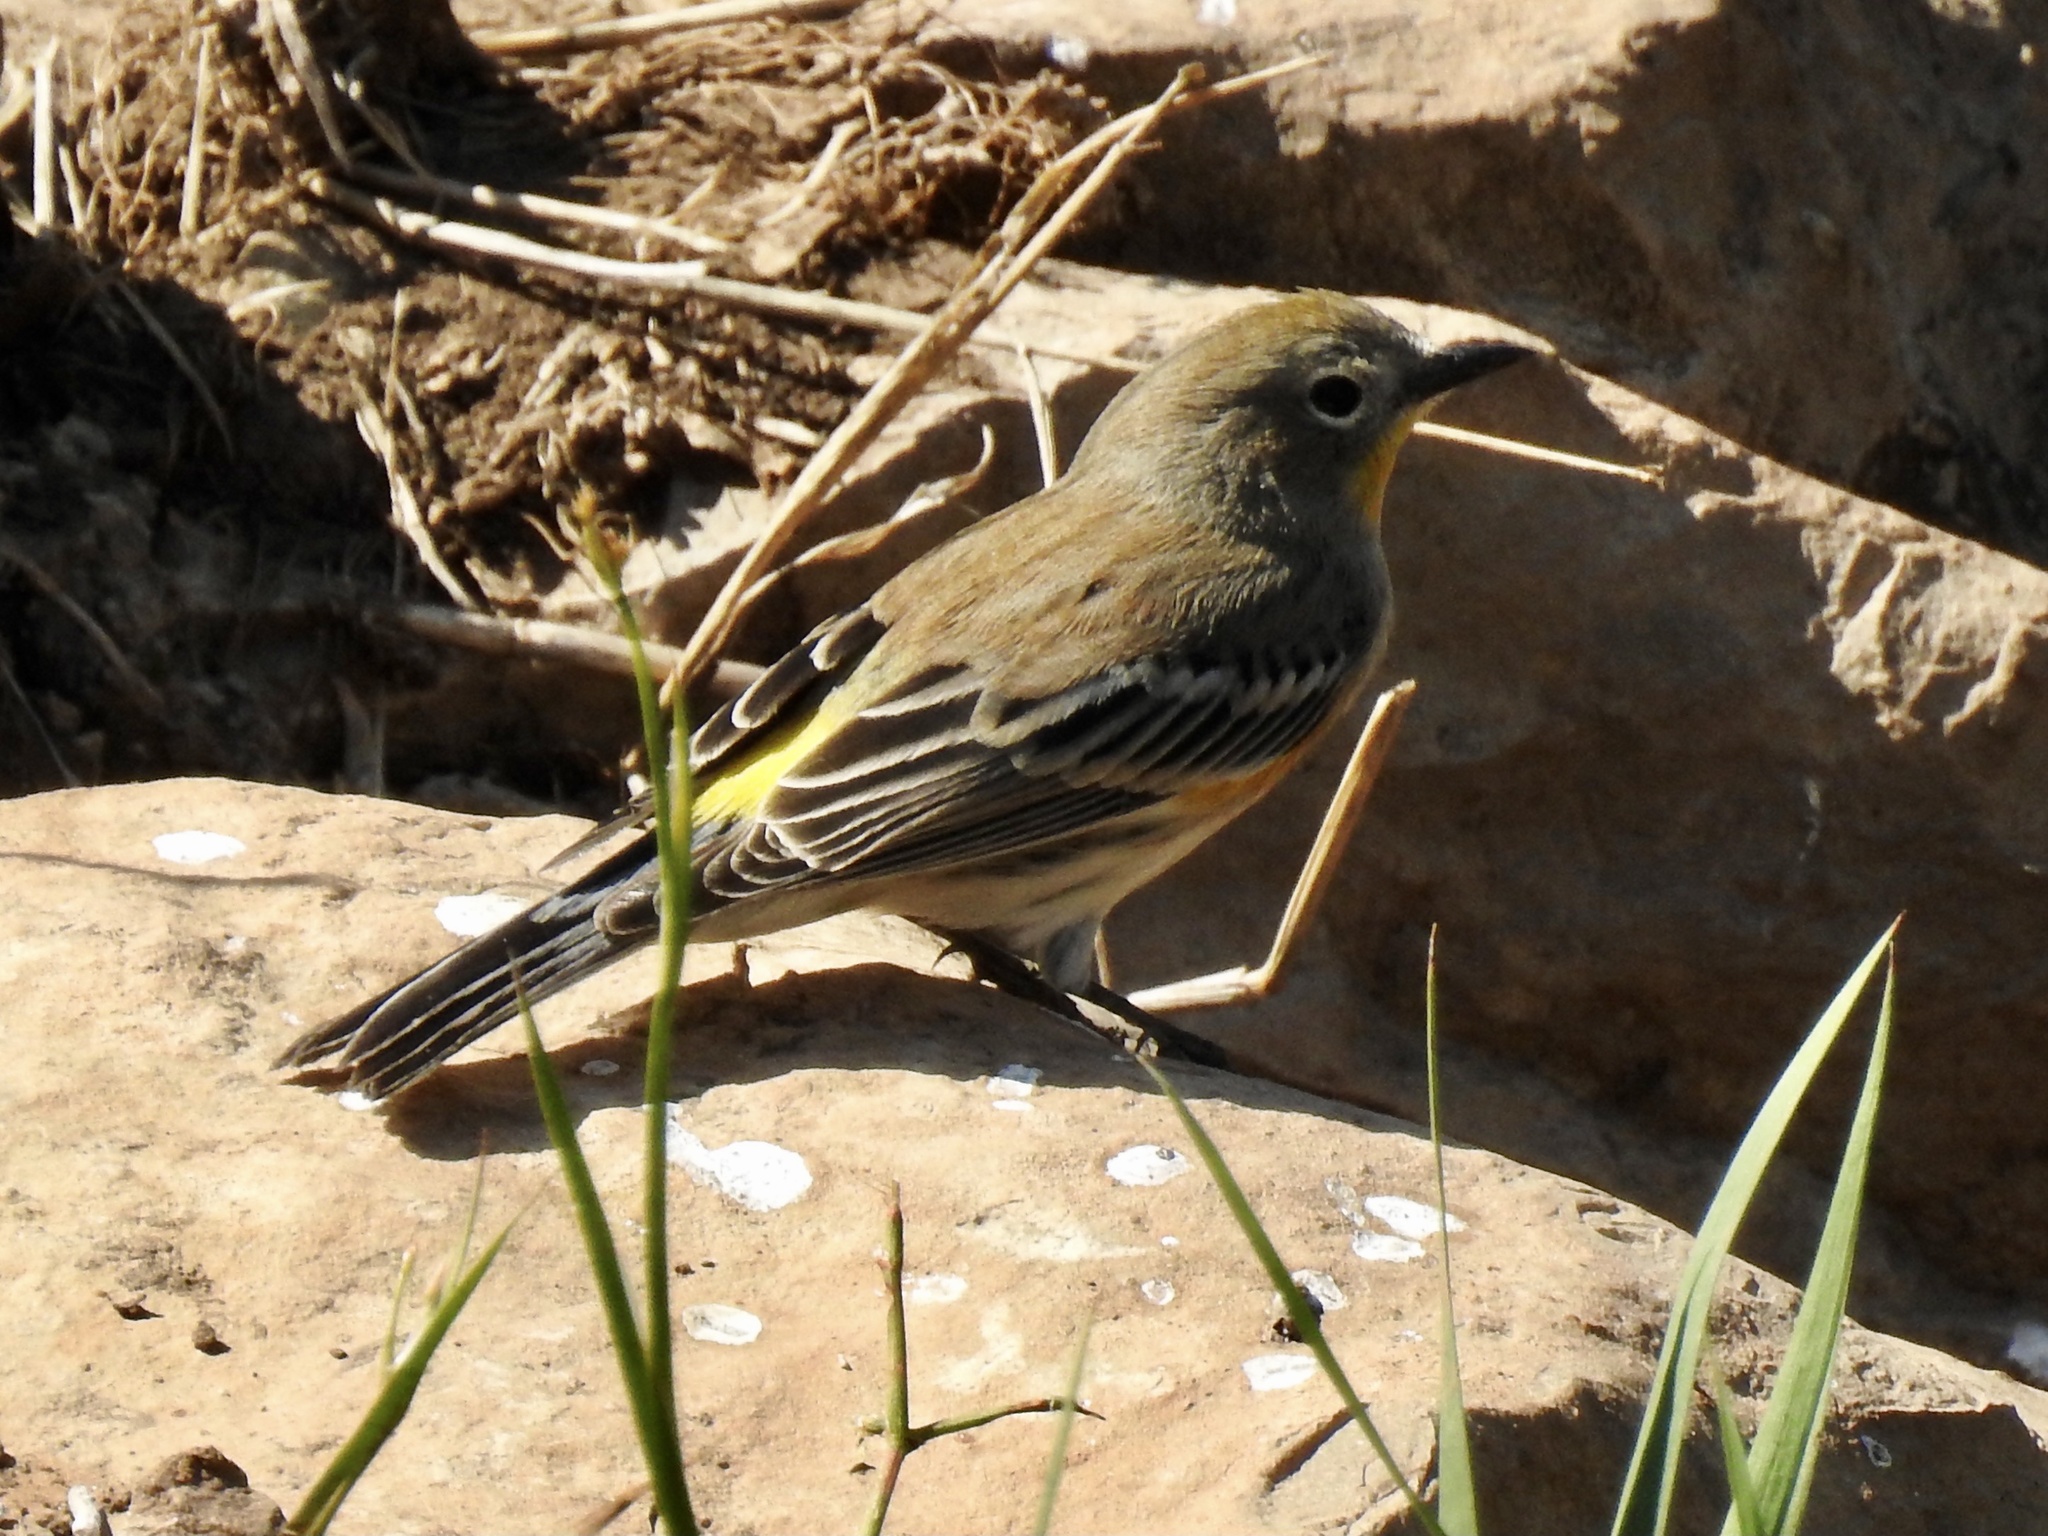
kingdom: Animalia
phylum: Chordata
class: Aves
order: Passeriformes
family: Parulidae
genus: Setophaga
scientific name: Setophaga coronata
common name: Myrtle warbler
